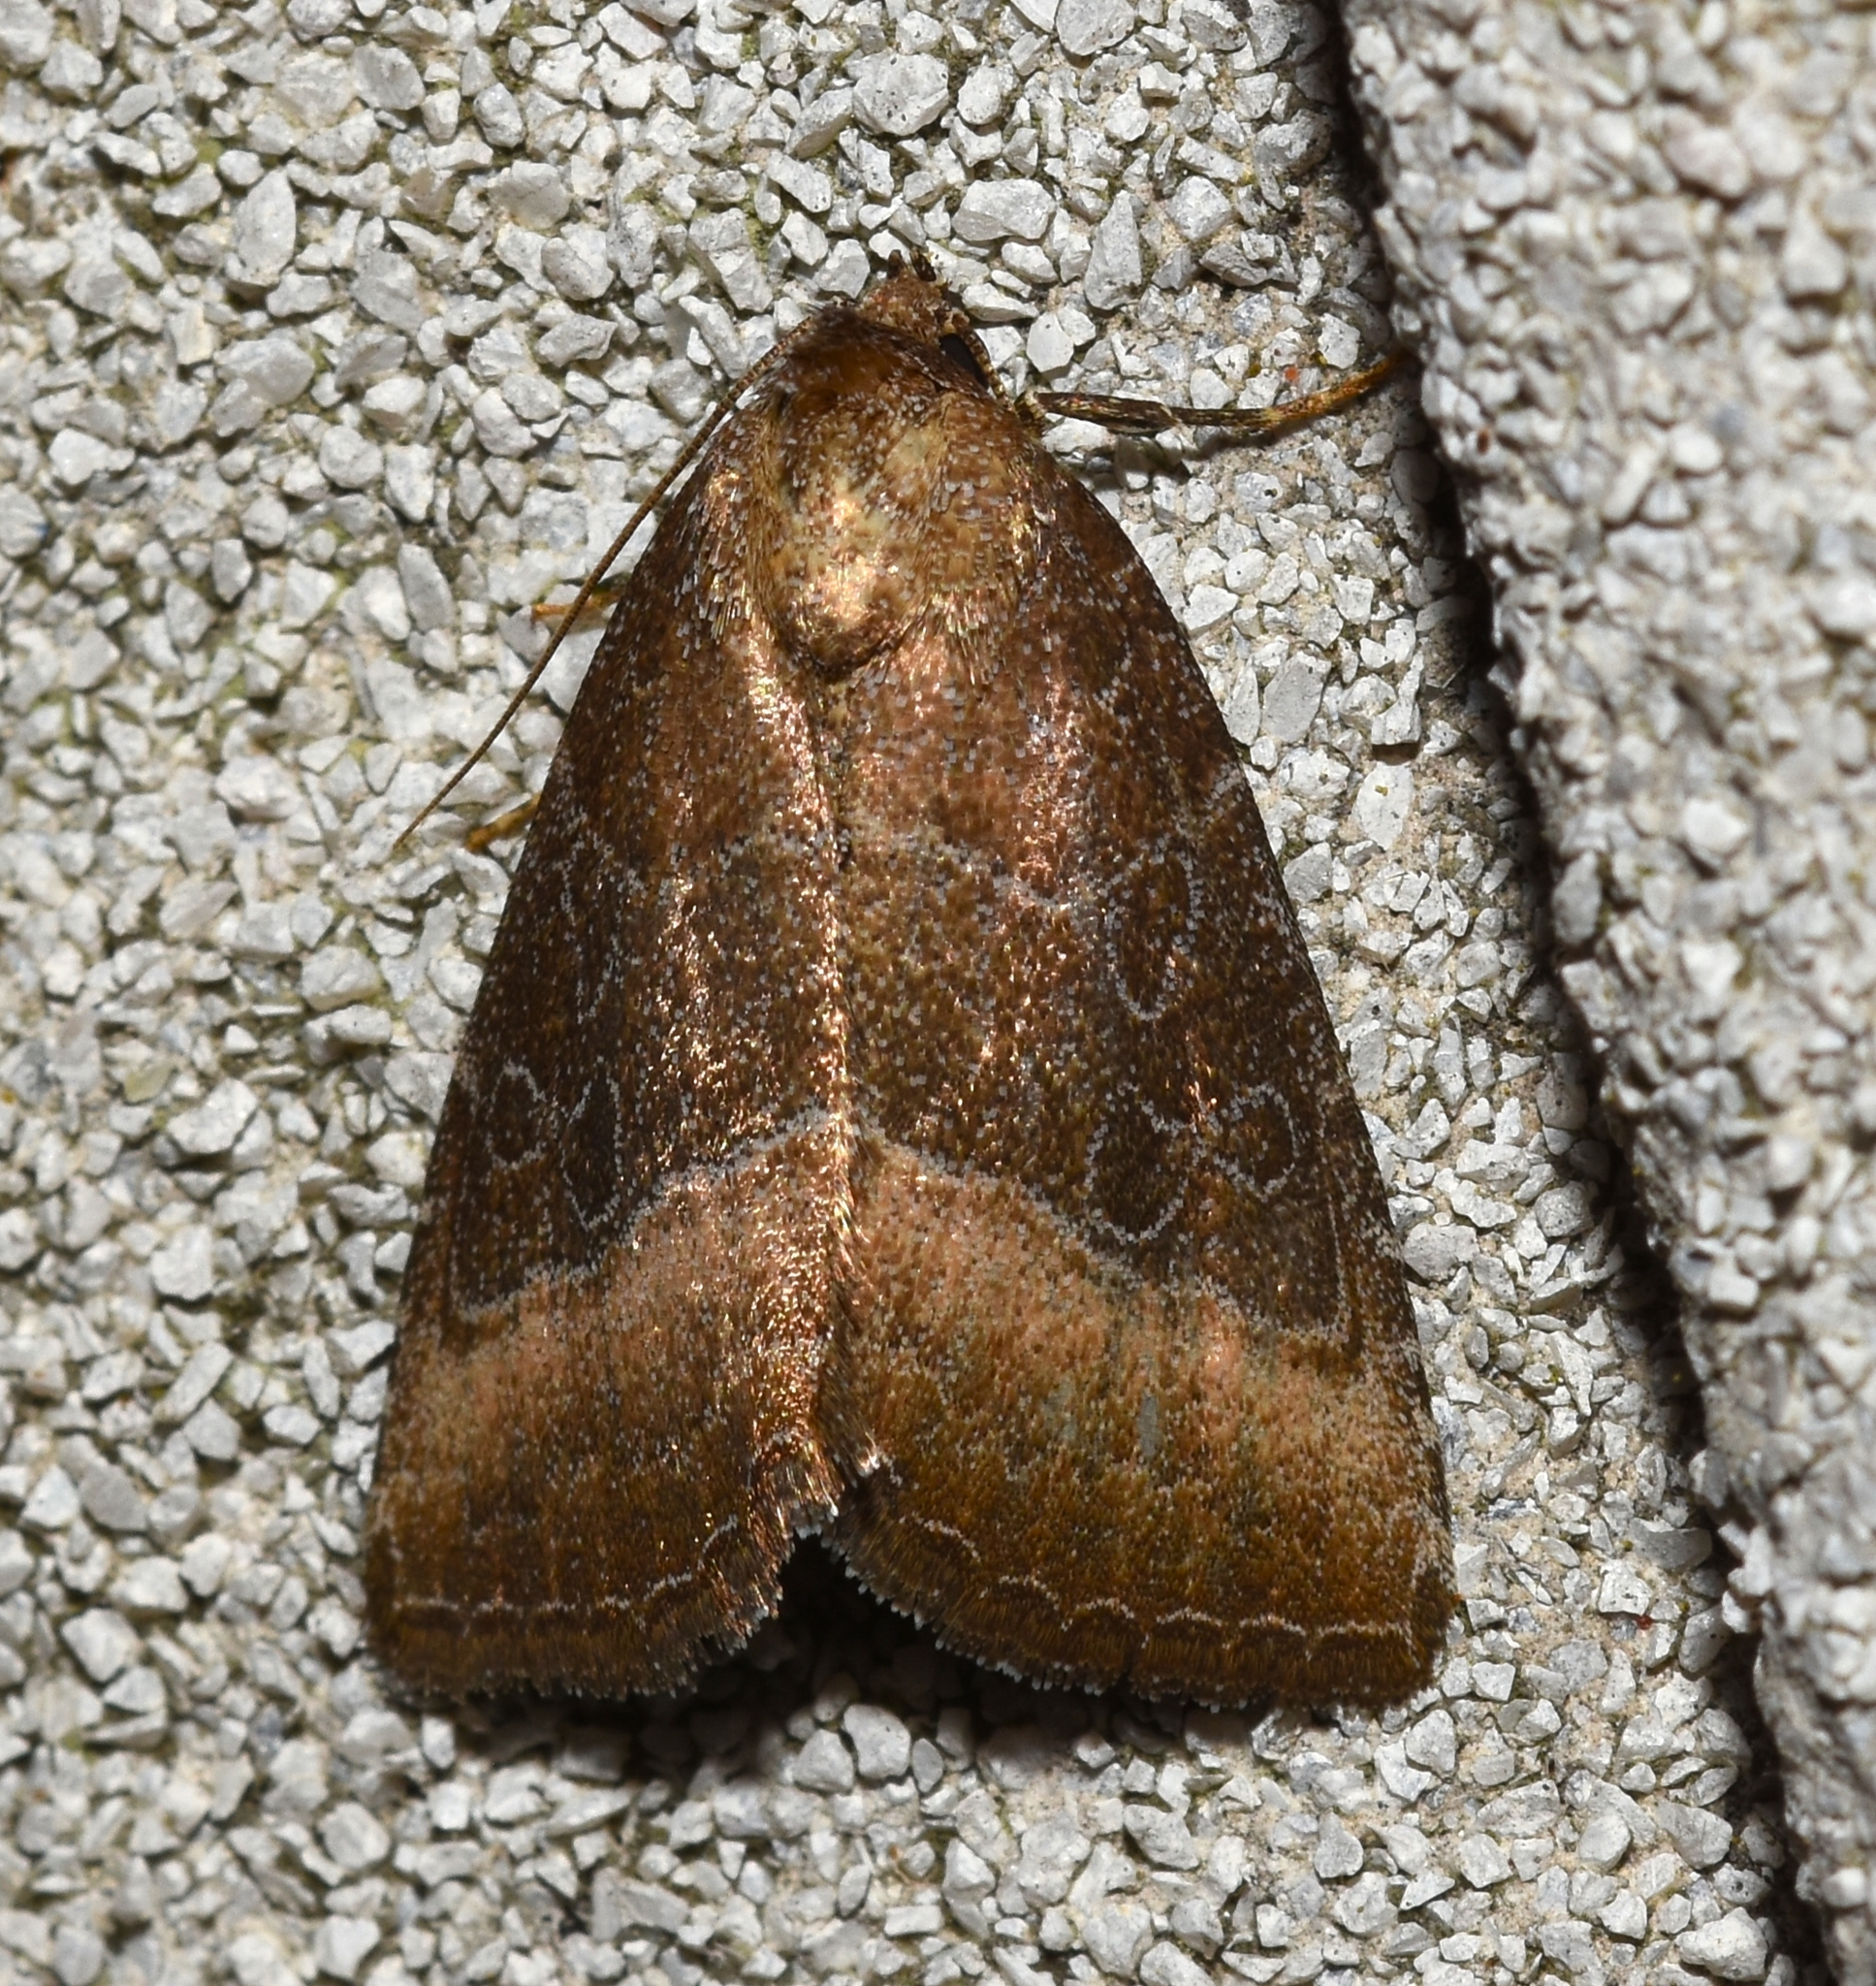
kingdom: Animalia
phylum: Arthropoda
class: Insecta
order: Lepidoptera
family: Noctuidae
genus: Ogdoconta
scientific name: Ogdoconta cinereola
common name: Common pinkband
